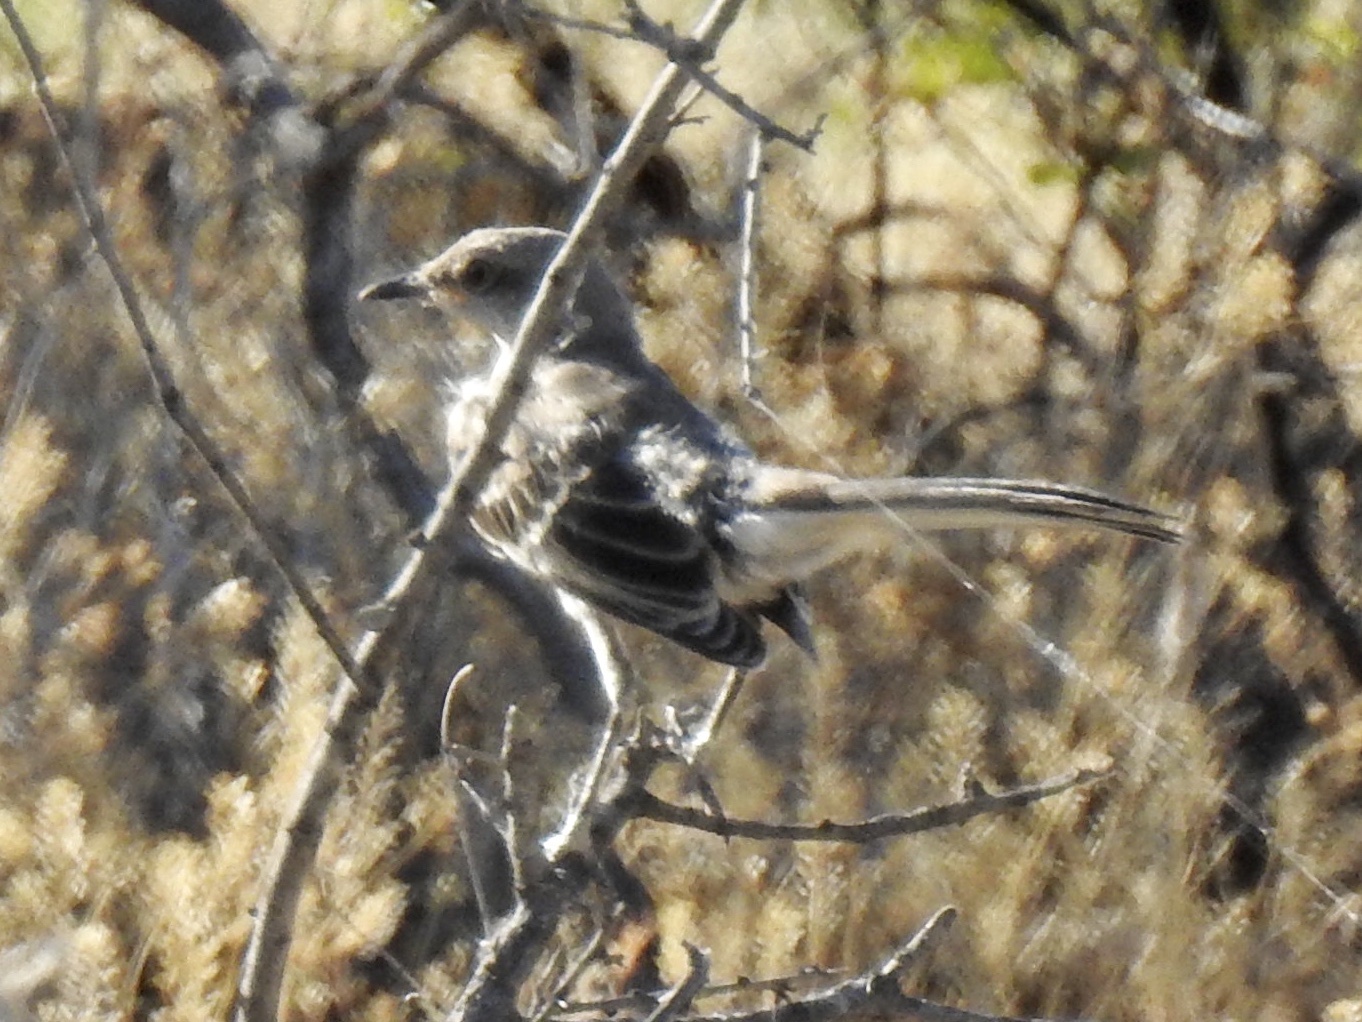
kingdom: Animalia
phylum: Chordata
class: Aves
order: Passeriformes
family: Mimidae
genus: Mimus
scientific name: Mimus polyglottos
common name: Northern mockingbird
